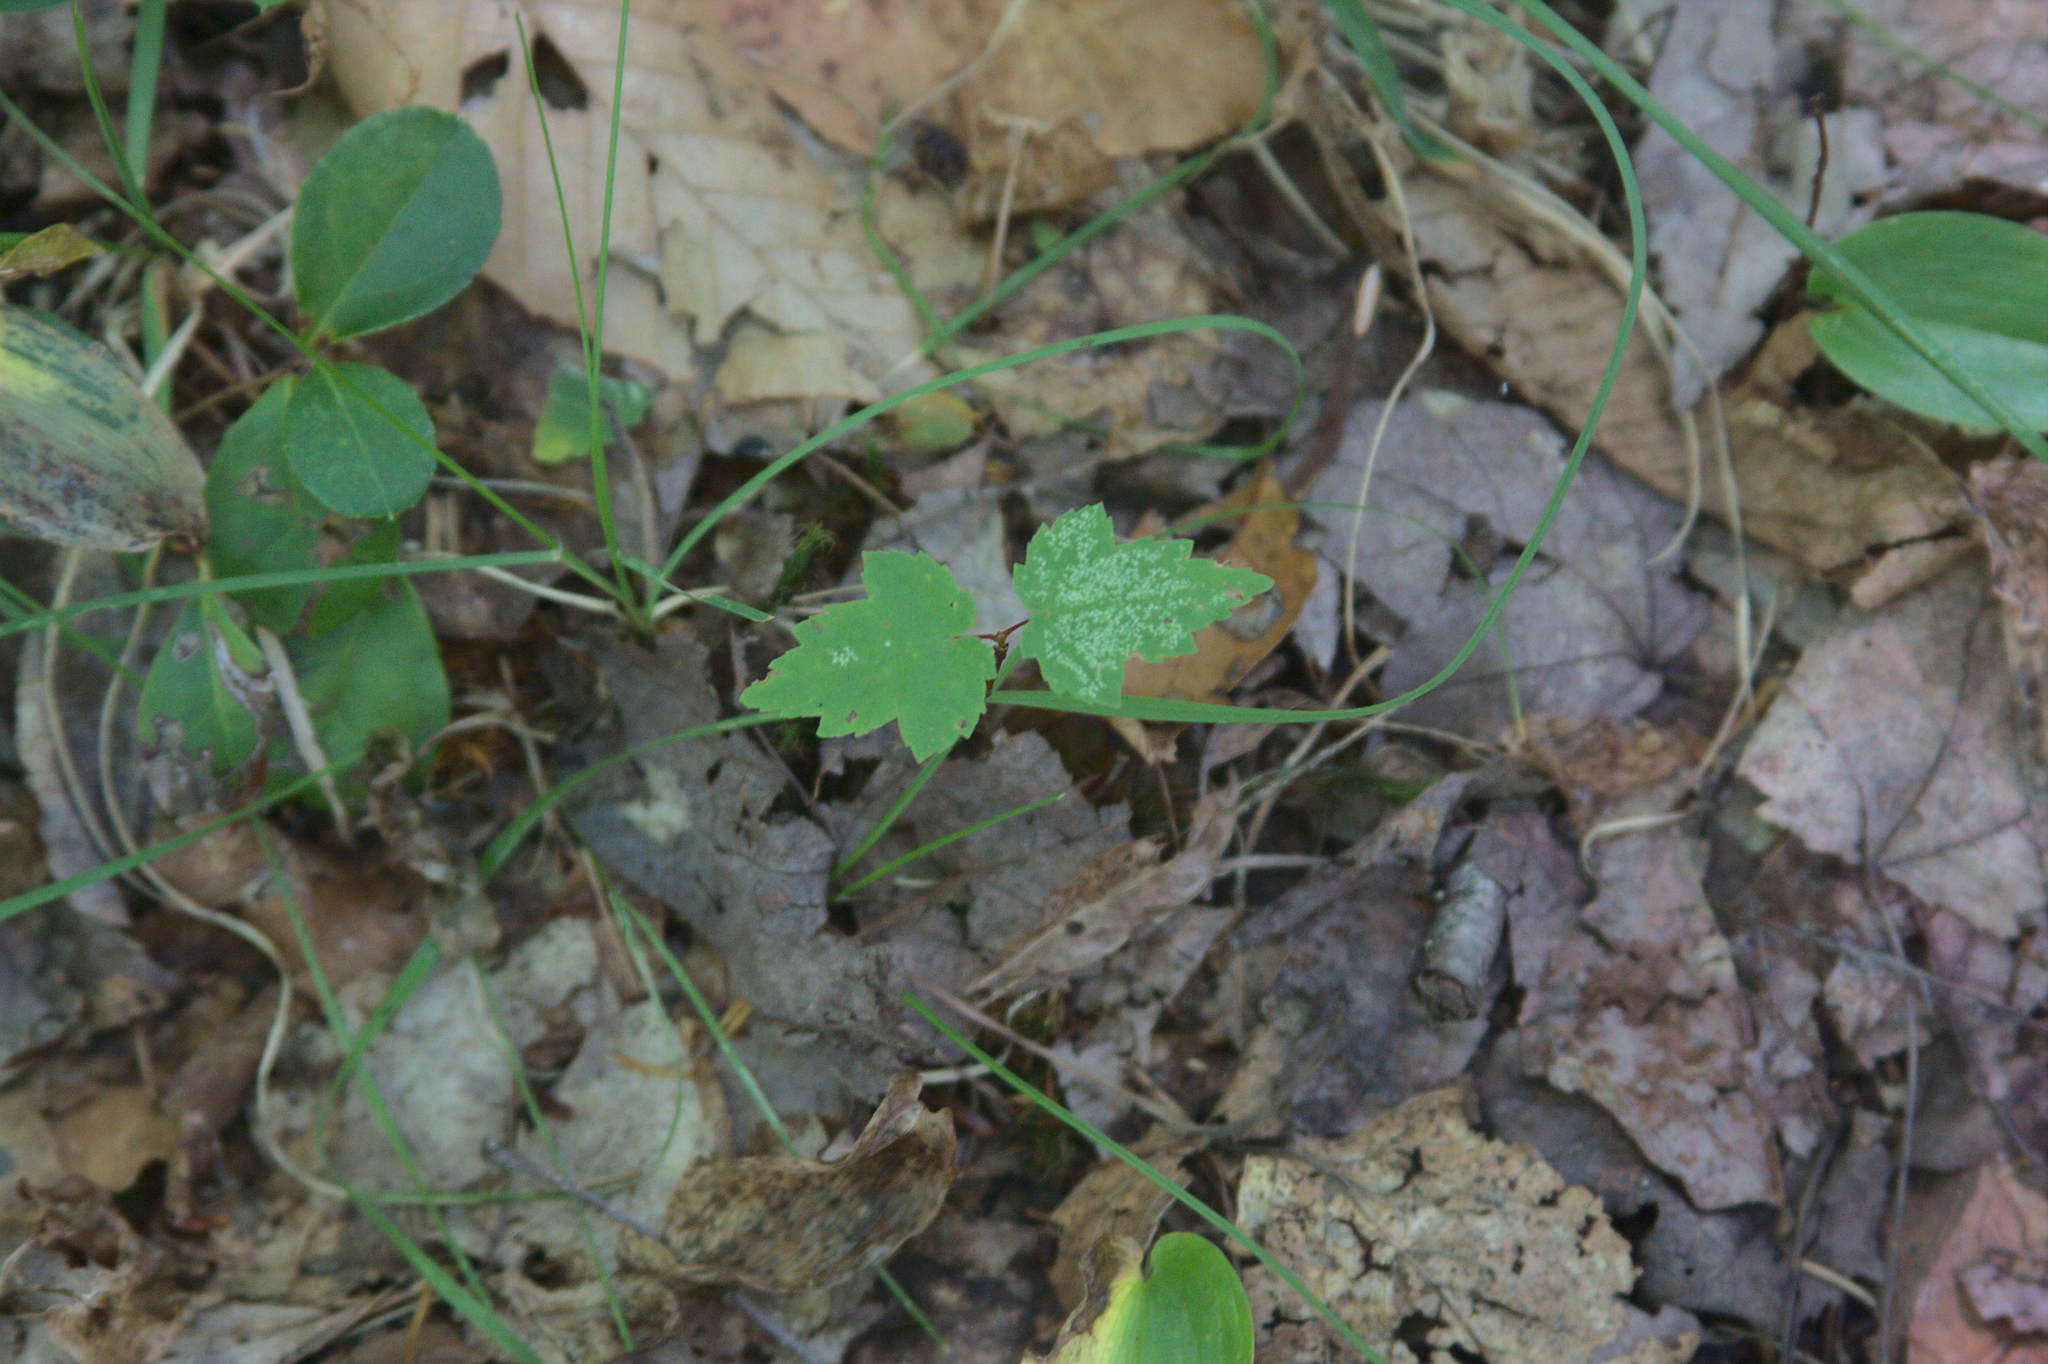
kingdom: Plantae
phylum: Tracheophyta
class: Magnoliopsida
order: Sapindales
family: Sapindaceae
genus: Acer
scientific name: Acer rubrum
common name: Red maple
